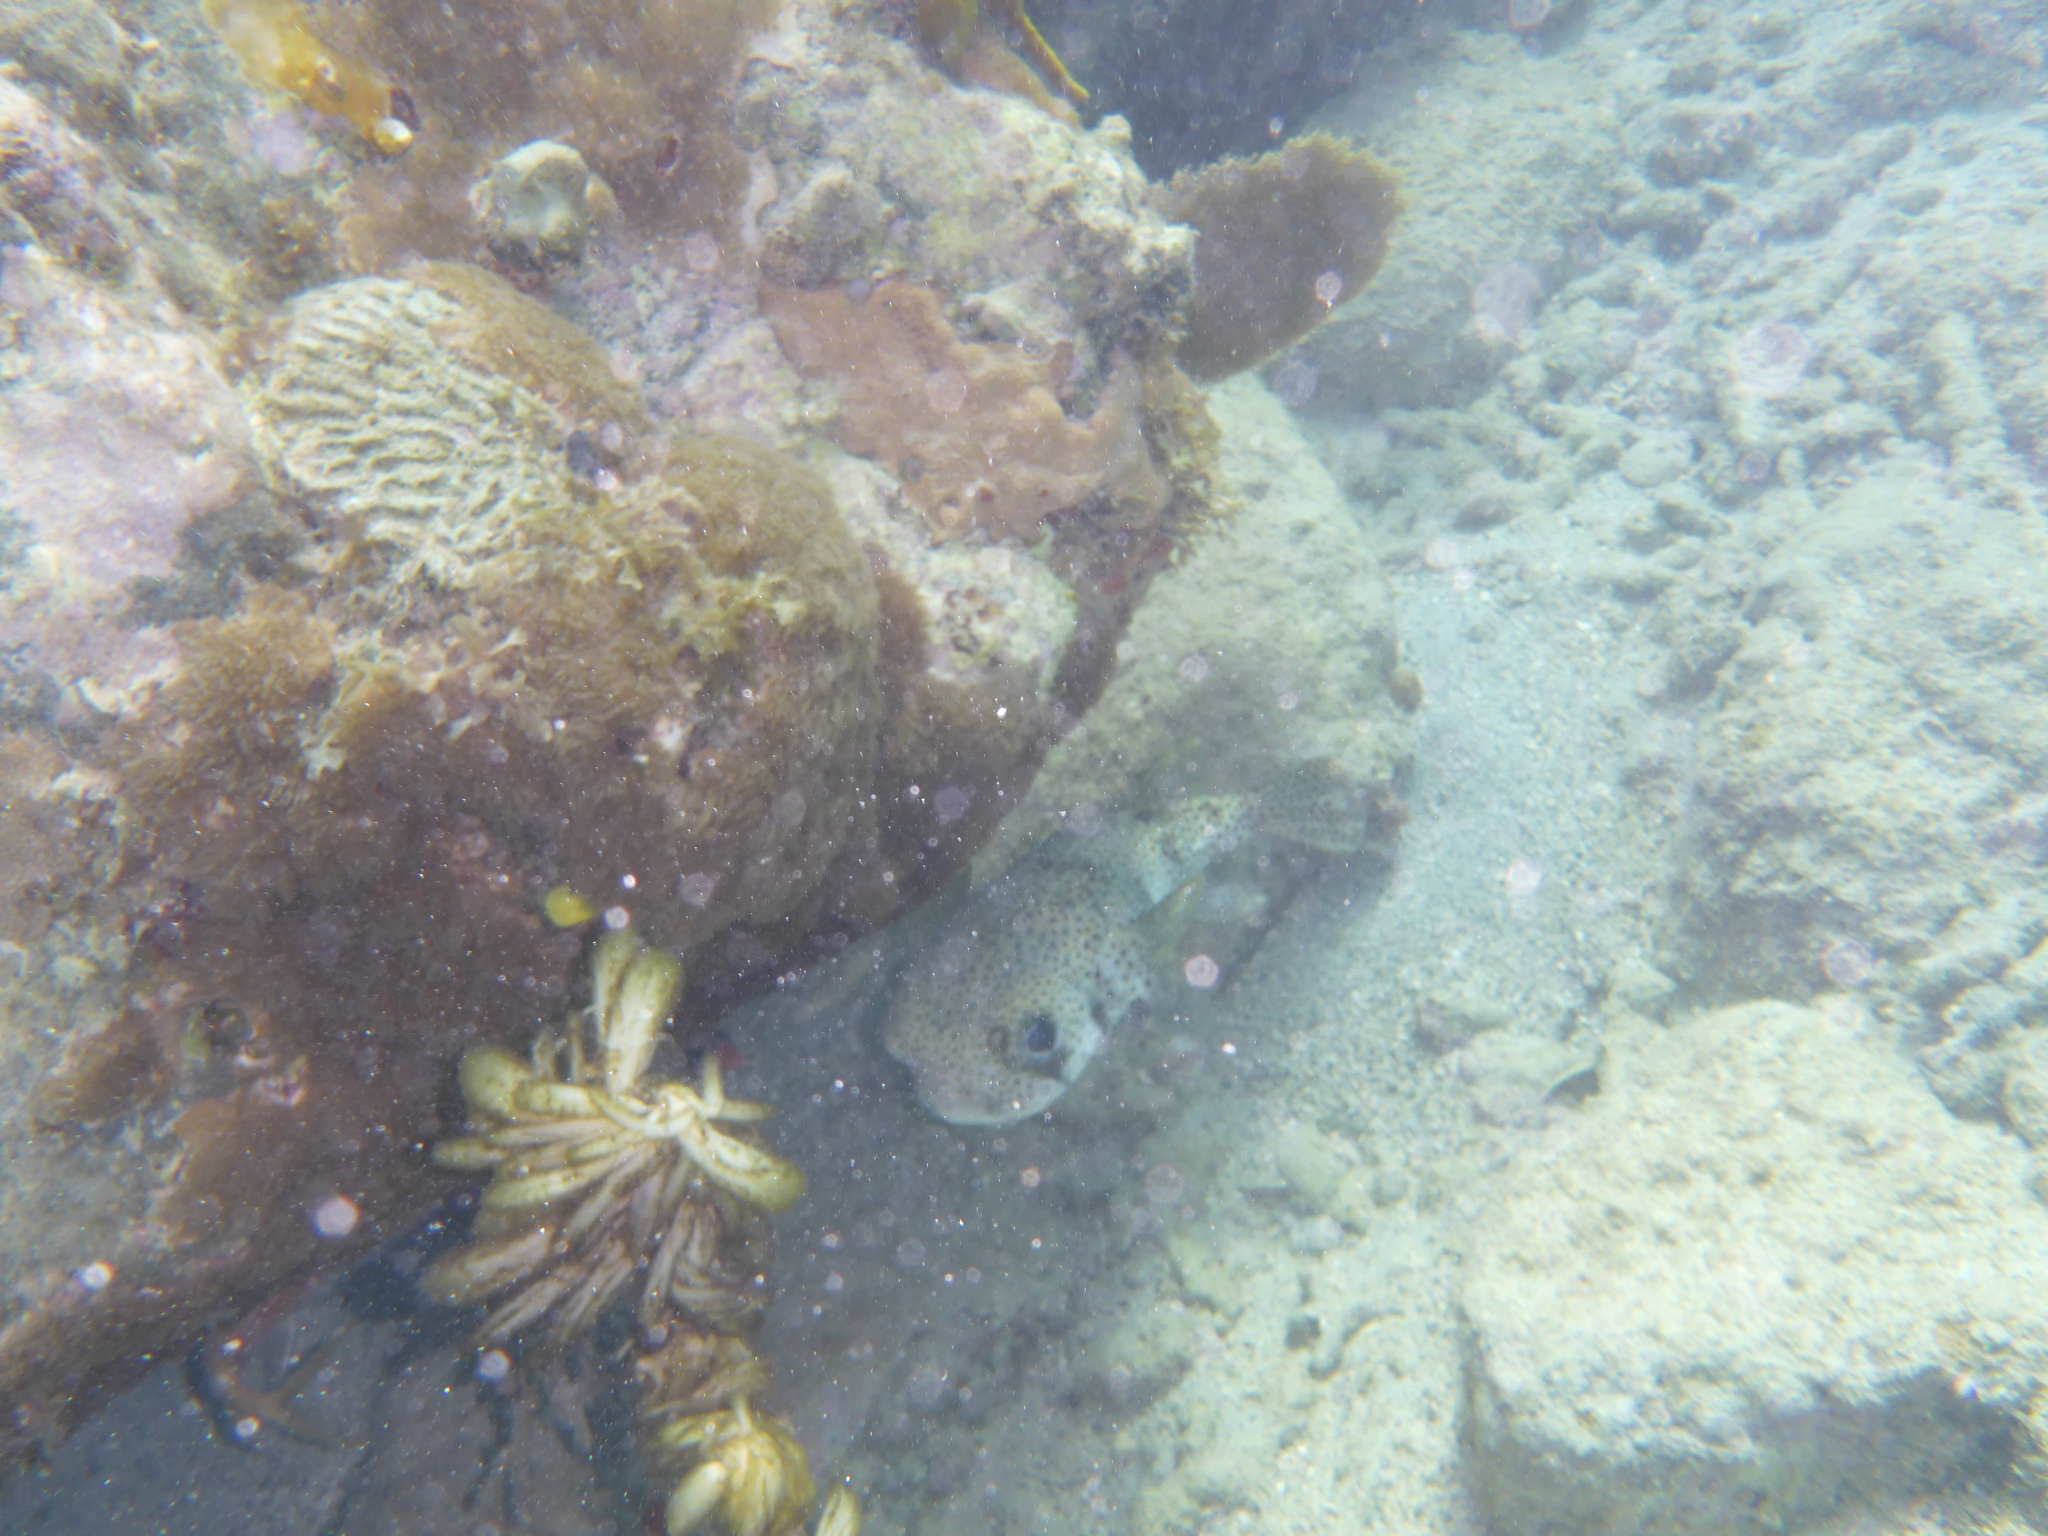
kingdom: Animalia
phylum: Chordata
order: Tetraodontiformes
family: Diodontidae
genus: Diodon
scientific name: Diodon hystrix
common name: Giant porcupinefish
